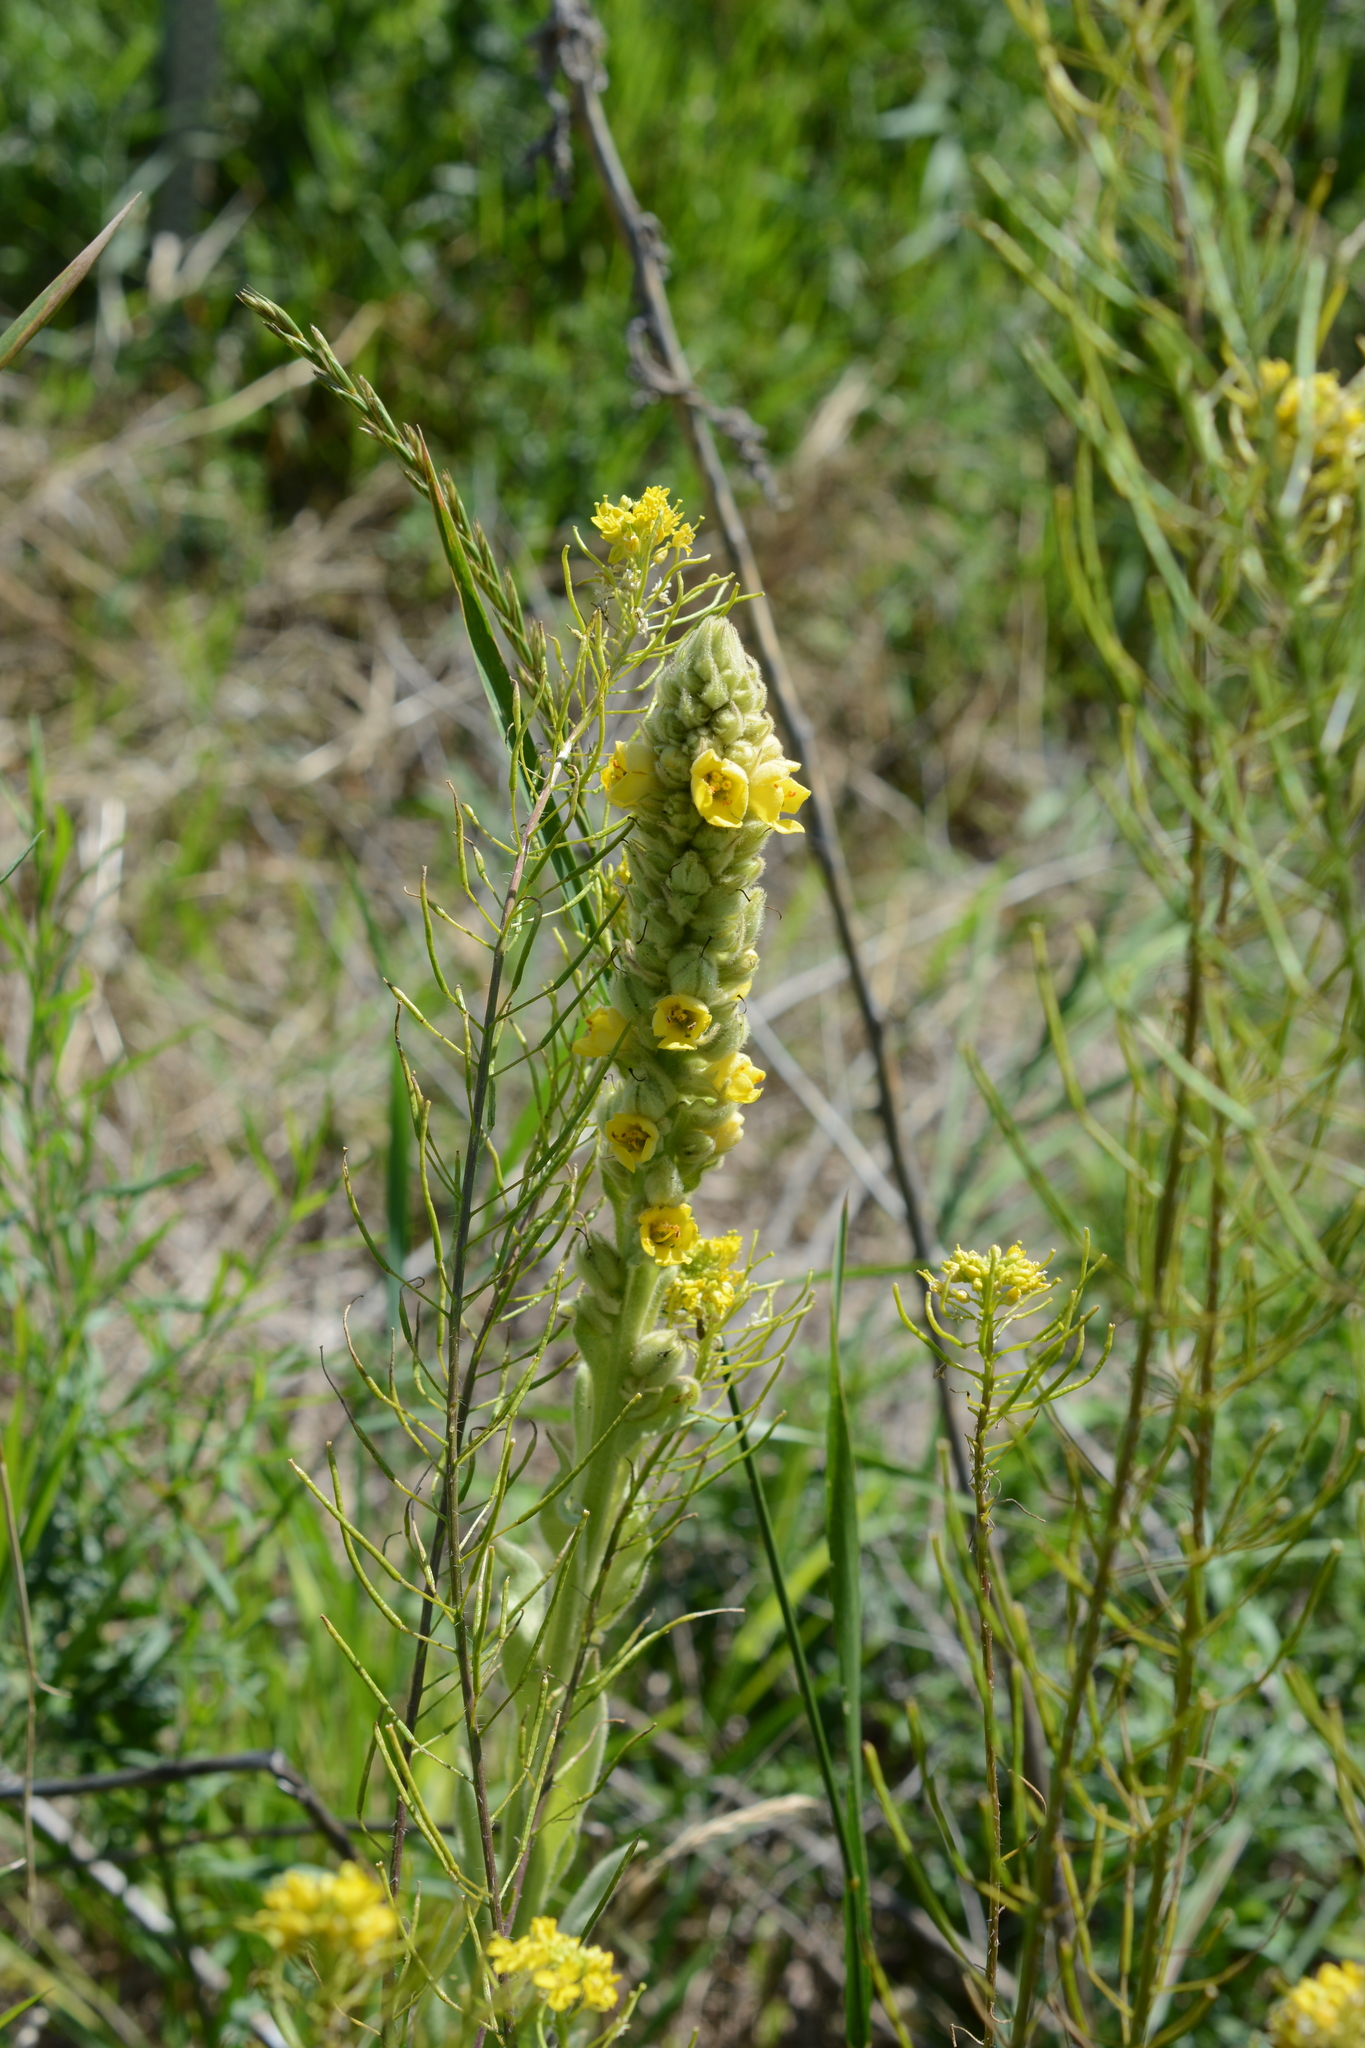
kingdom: Plantae
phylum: Tracheophyta
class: Magnoliopsida
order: Lamiales
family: Scrophulariaceae
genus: Verbascum
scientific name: Verbascum thapsus
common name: Common mullein
